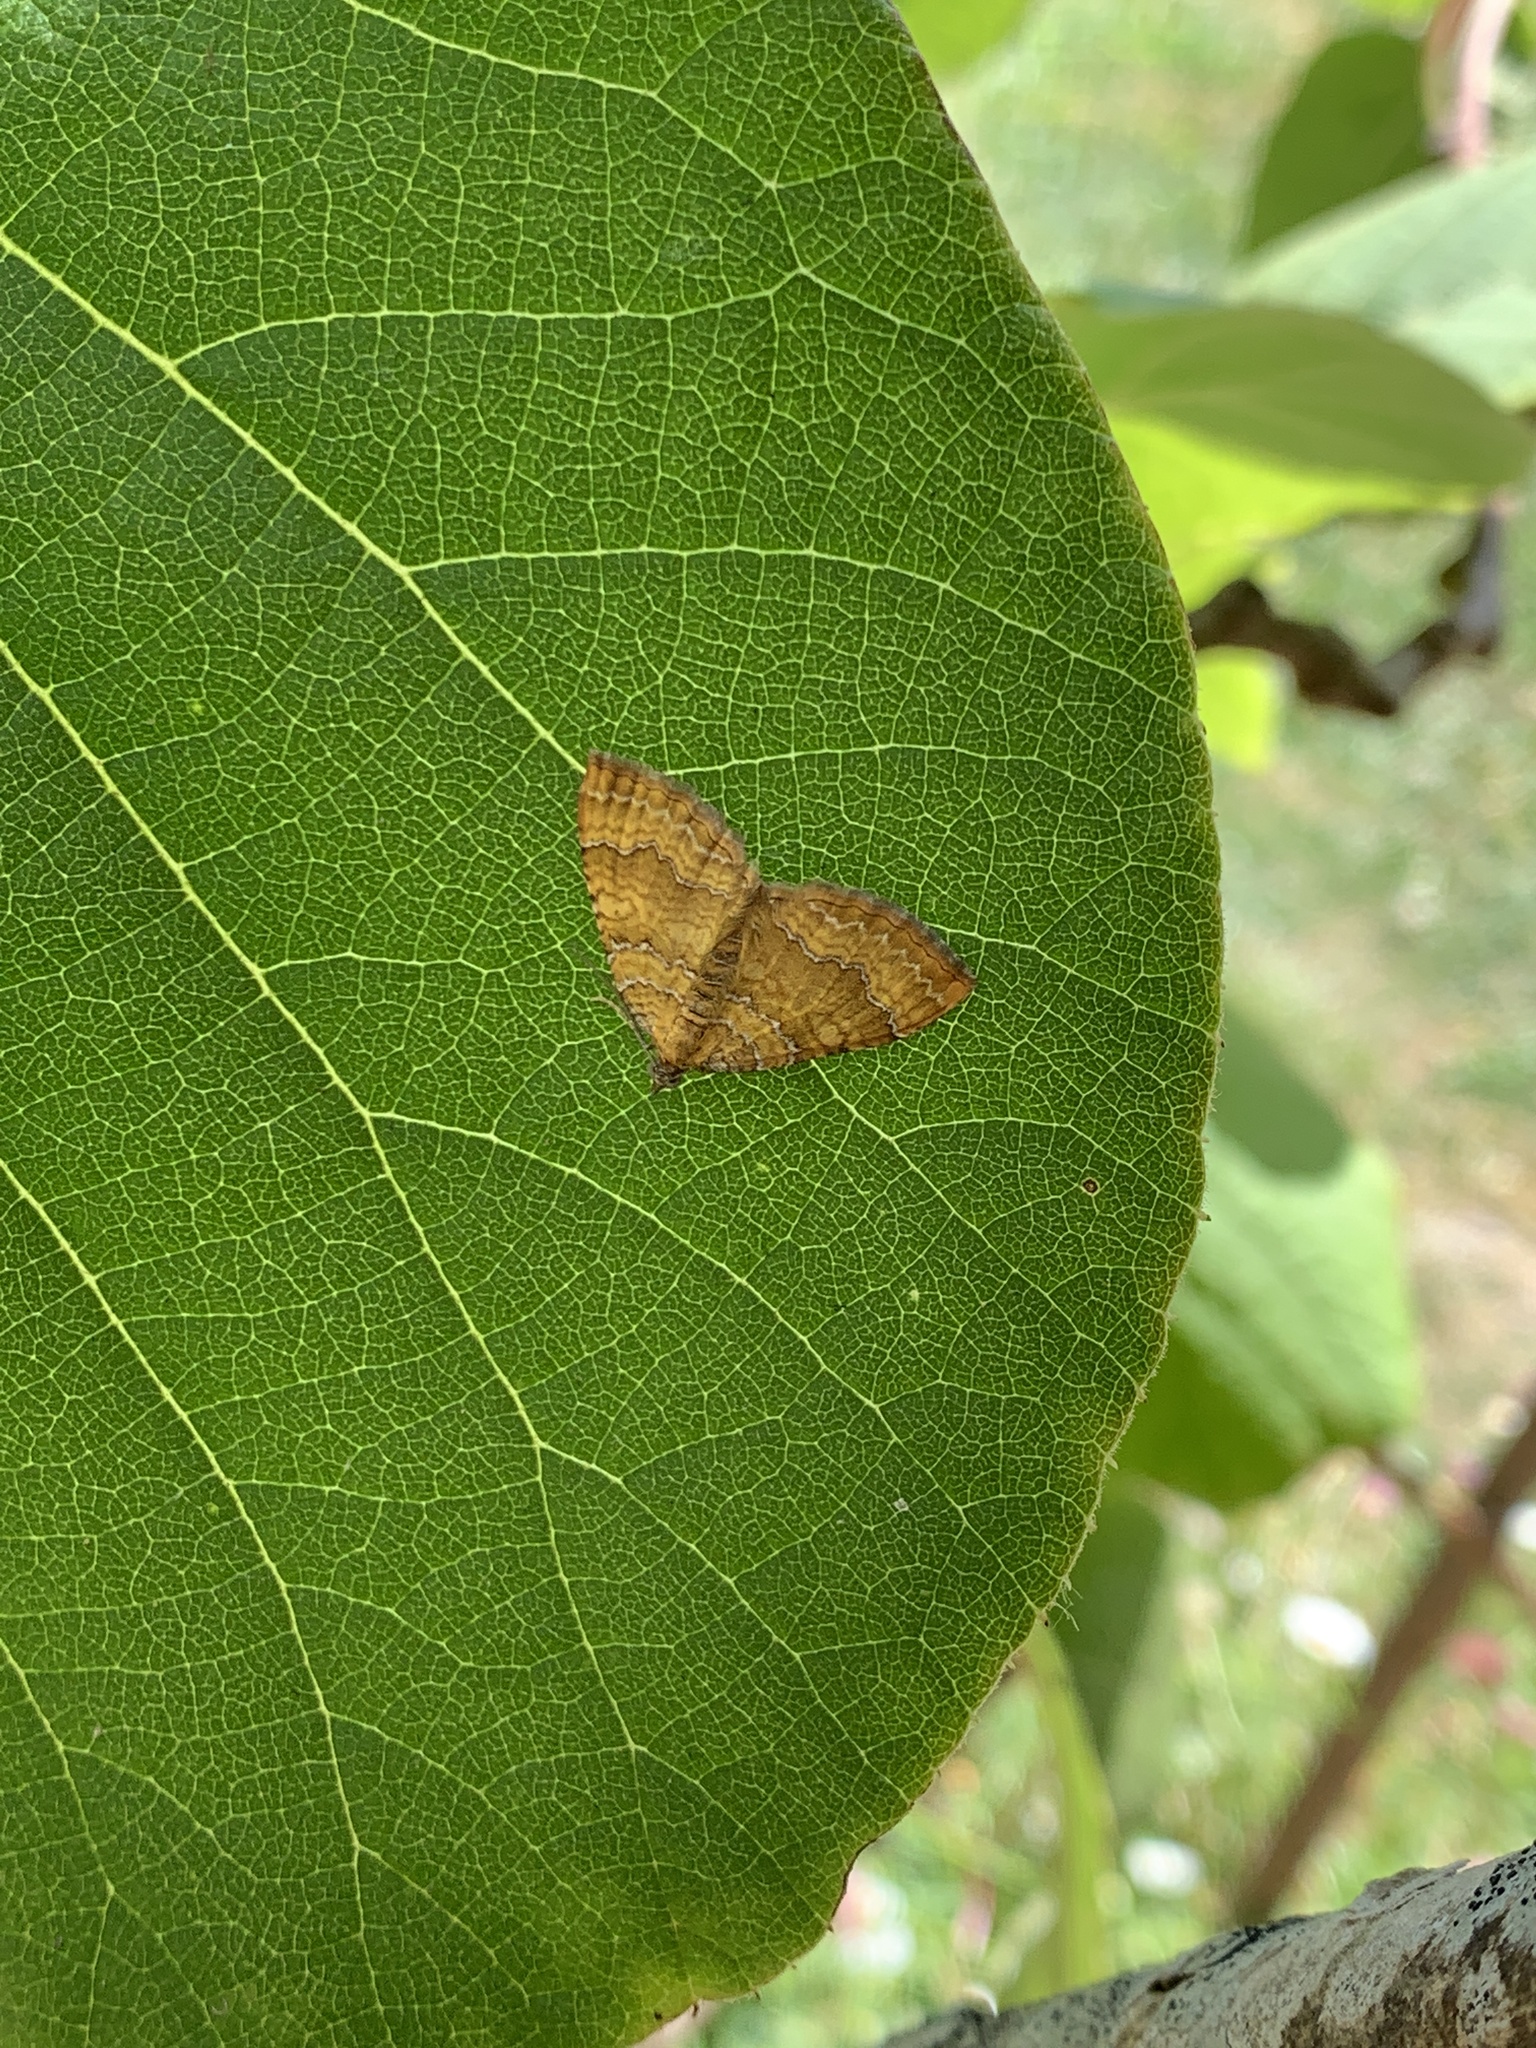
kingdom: Animalia
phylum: Arthropoda
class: Insecta
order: Lepidoptera
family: Geometridae
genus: Camptogramma
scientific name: Camptogramma bilineata
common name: Yellow shell
